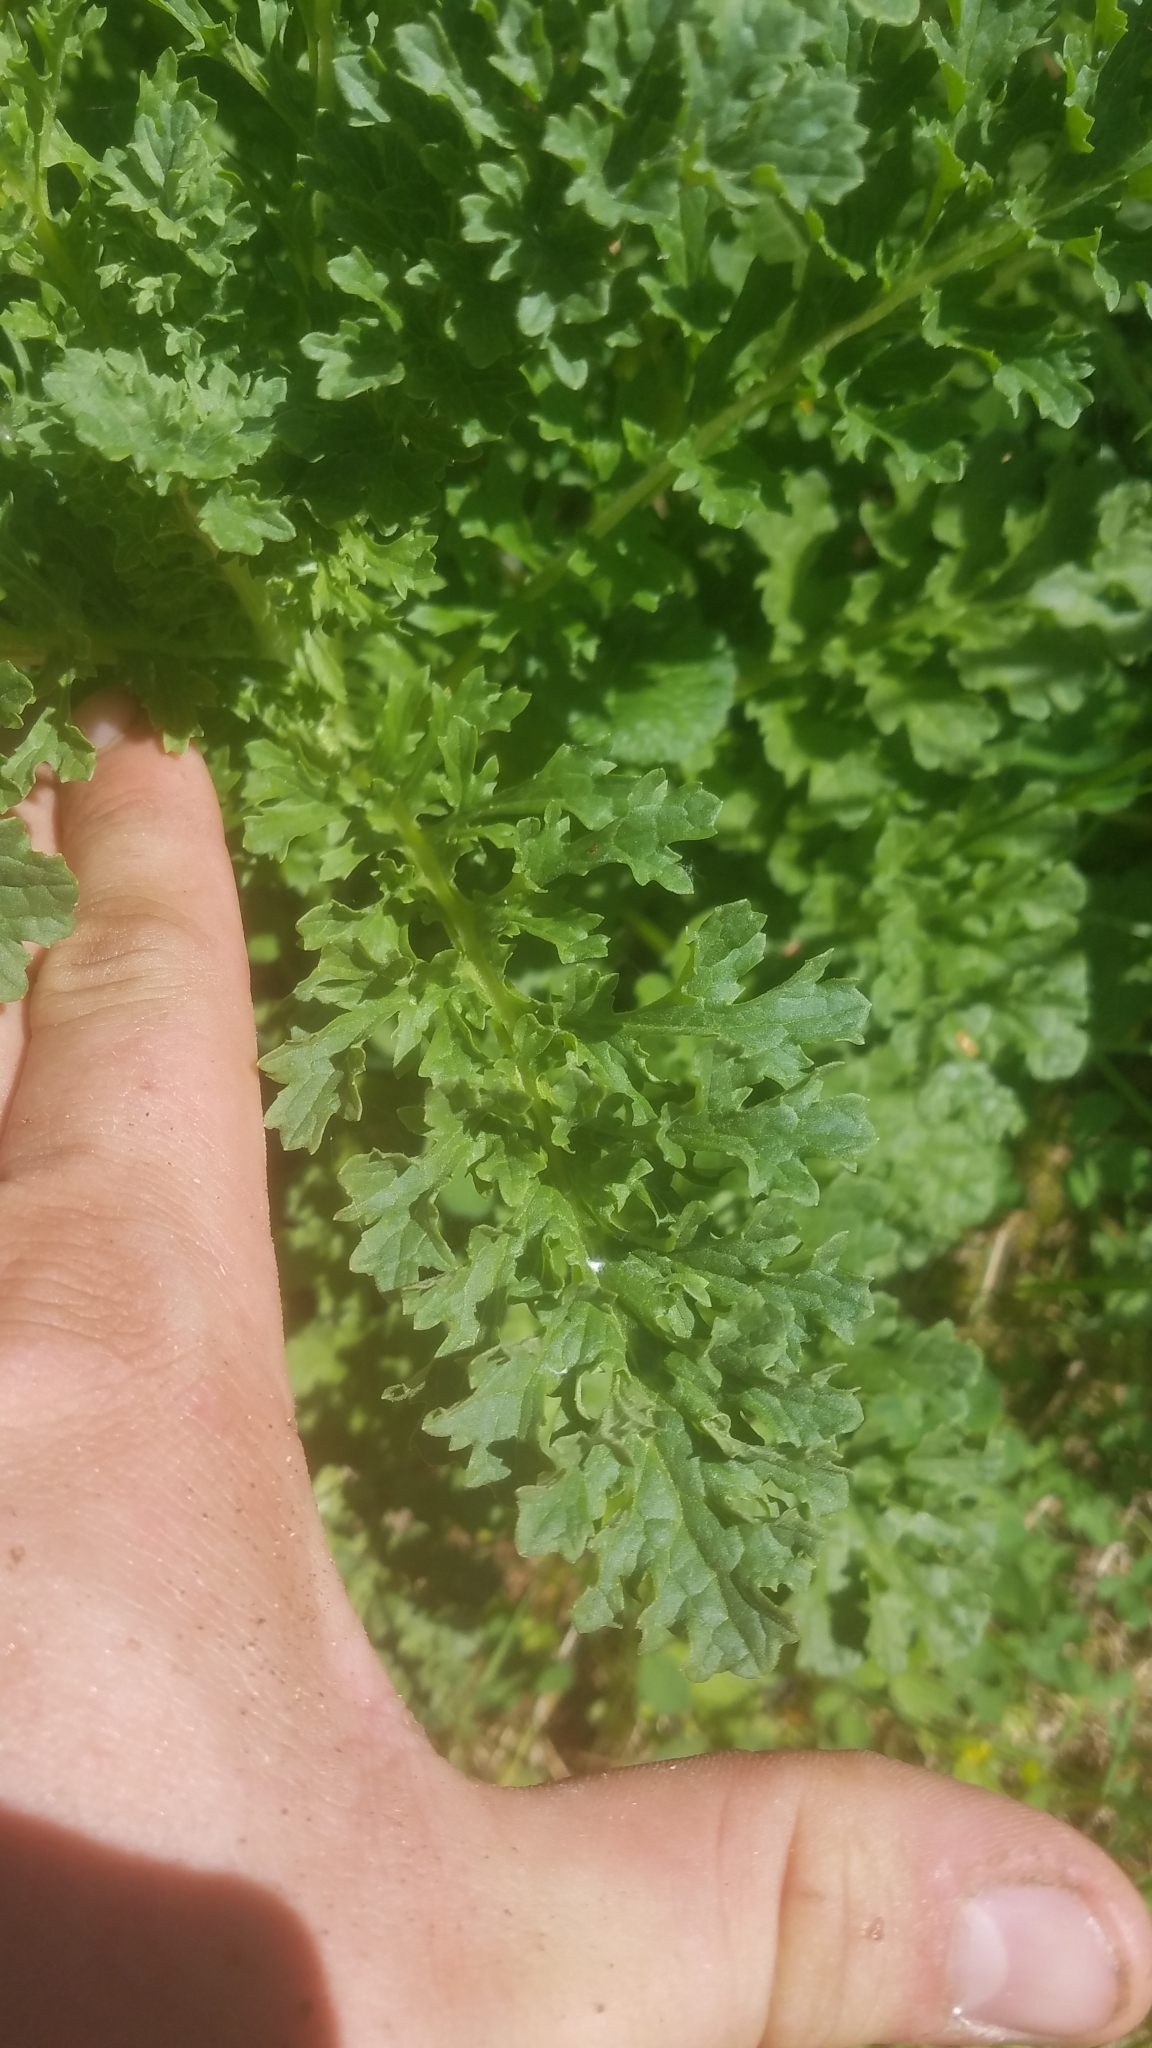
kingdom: Plantae
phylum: Tracheophyta
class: Magnoliopsida
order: Asterales
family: Asteraceae
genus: Jacobaea
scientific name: Jacobaea vulgaris
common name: Stinking willie
